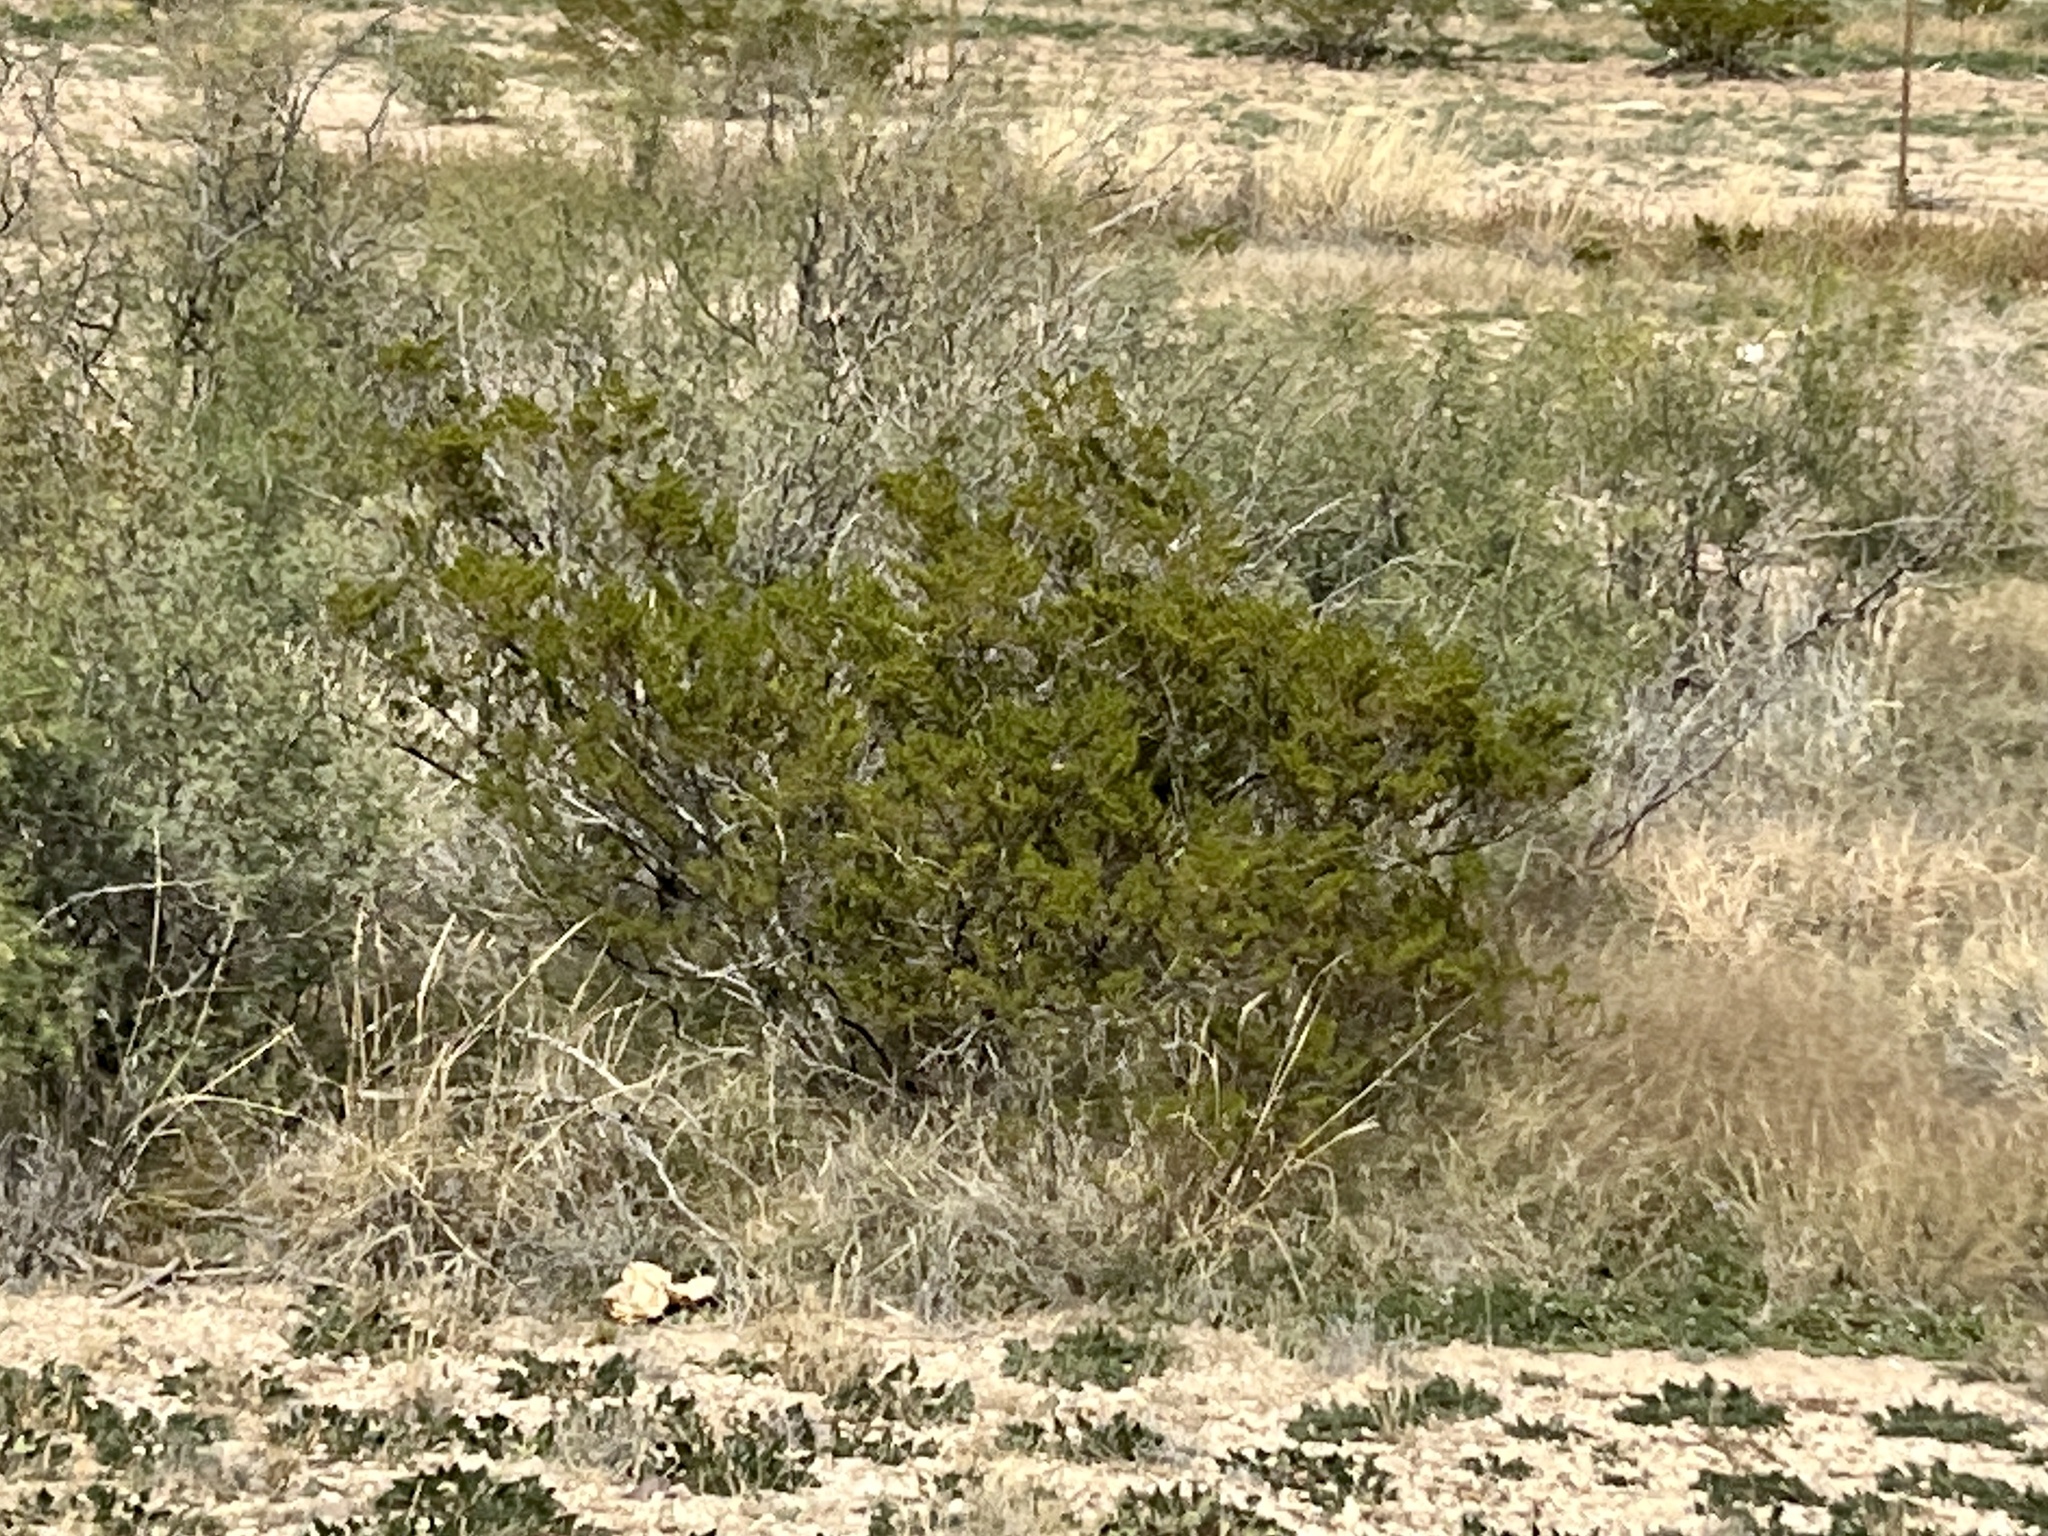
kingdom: Plantae
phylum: Tracheophyta
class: Magnoliopsida
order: Zygophyllales
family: Zygophyllaceae
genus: Larrea
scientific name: Larrea tridentata
